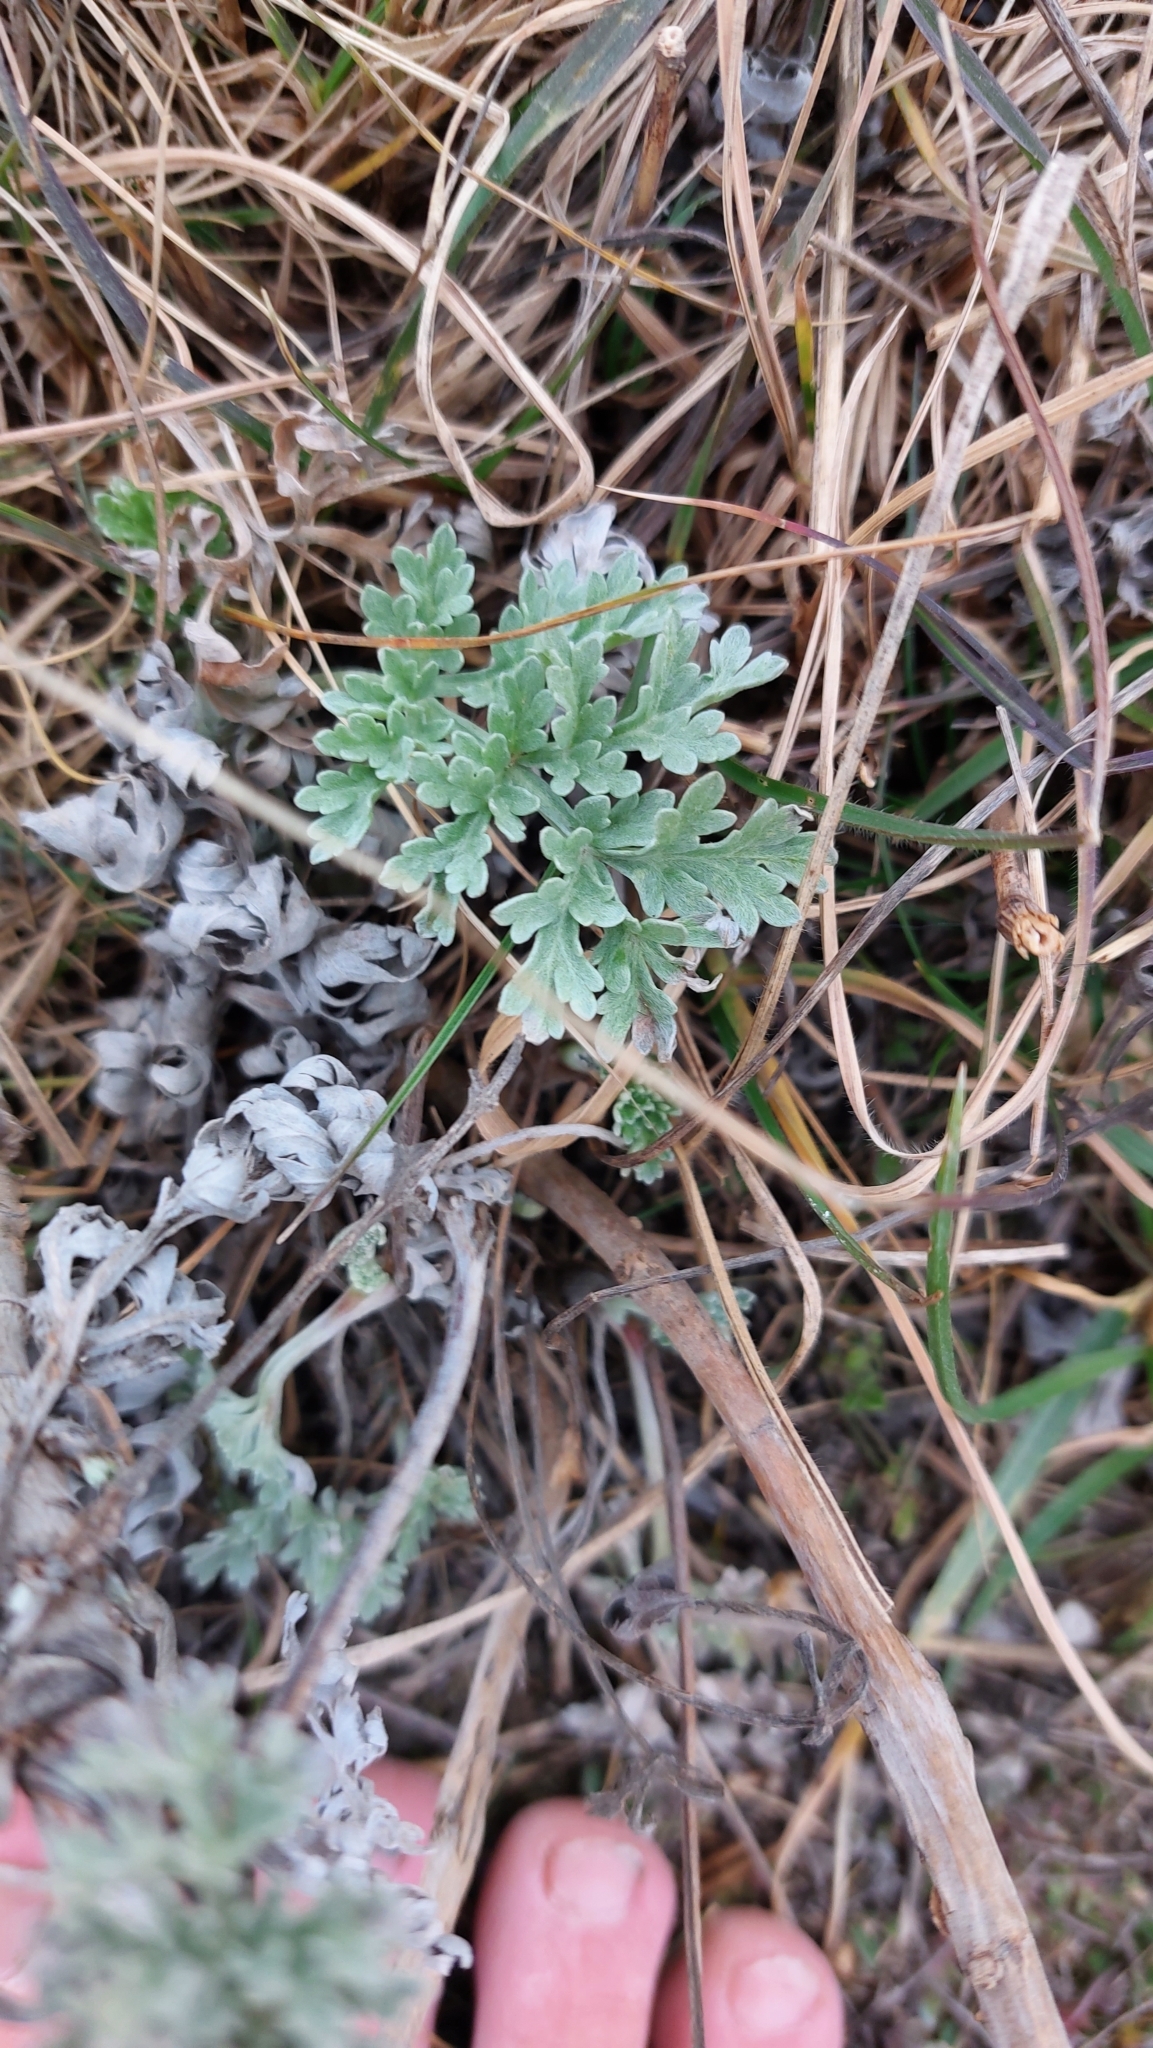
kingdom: Plantae
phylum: Tracheophyta
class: Magnoliopsida
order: Asterales
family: Asteraceae
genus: Artemisia
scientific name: Artemisia absinthium
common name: Wormwood
